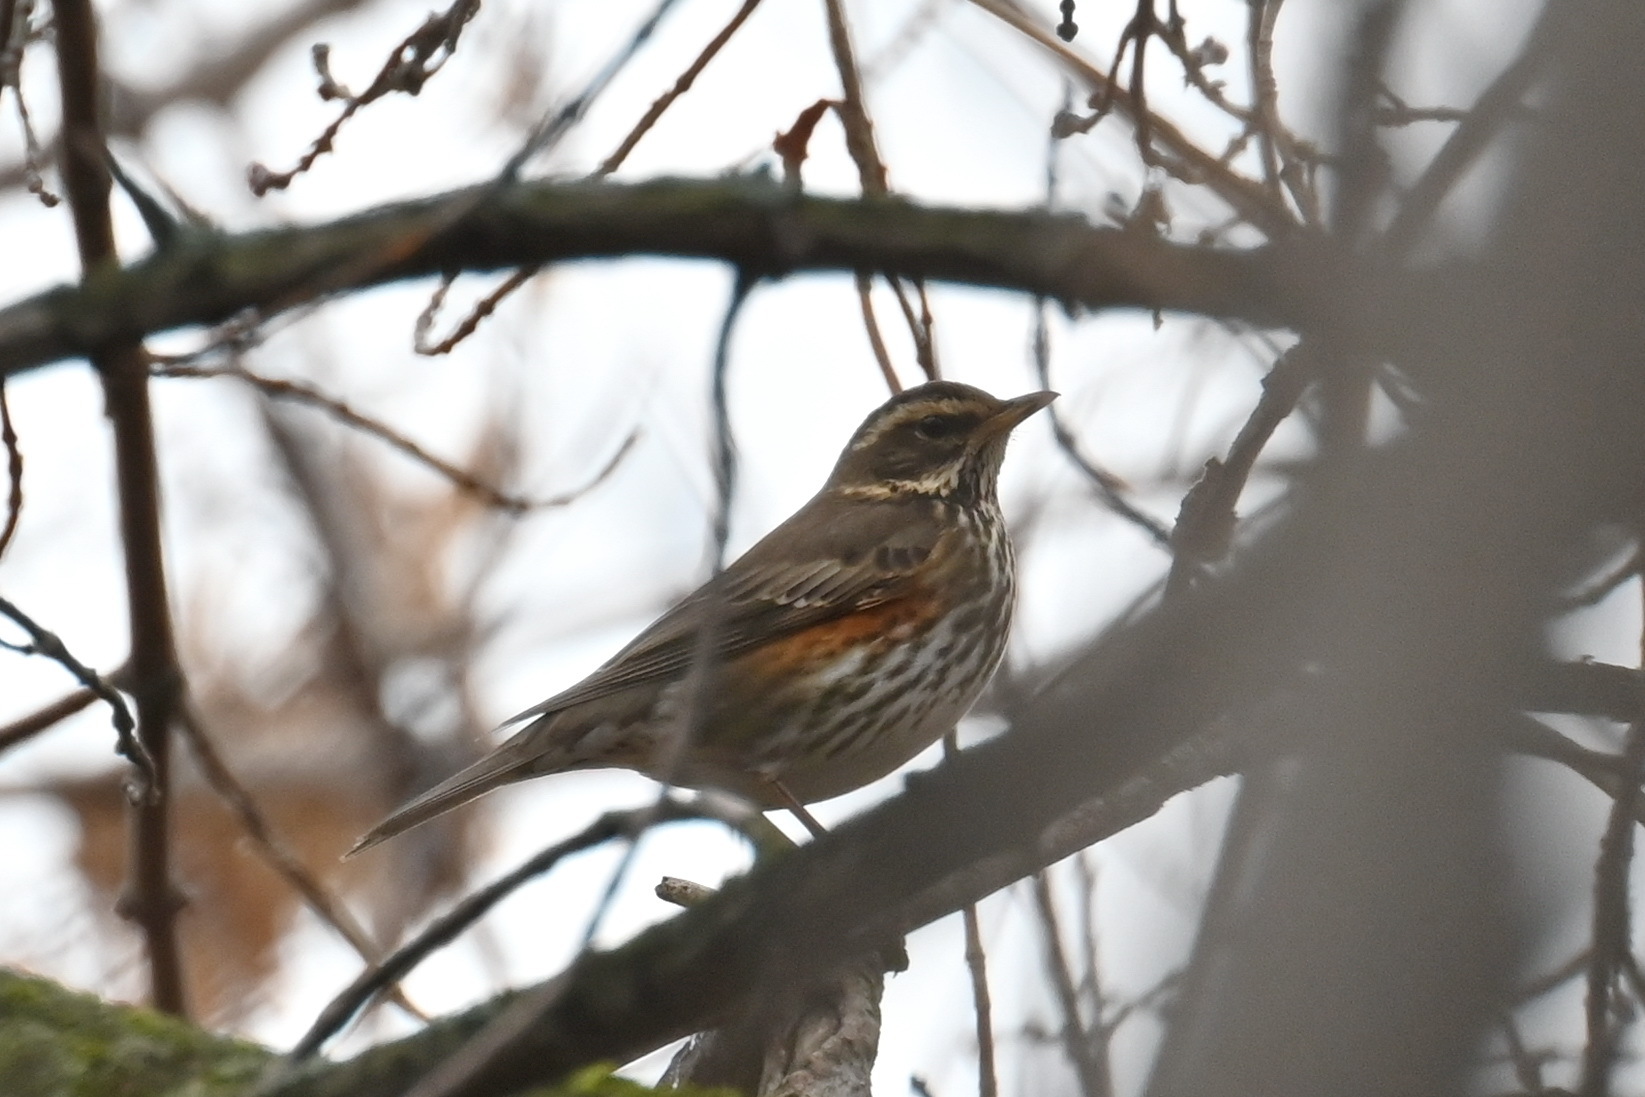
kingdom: Animalia
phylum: Chordata
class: Aves
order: Passeriformes
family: Turdidae
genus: Turdus
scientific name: Turdus iliacus
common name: Redwing
